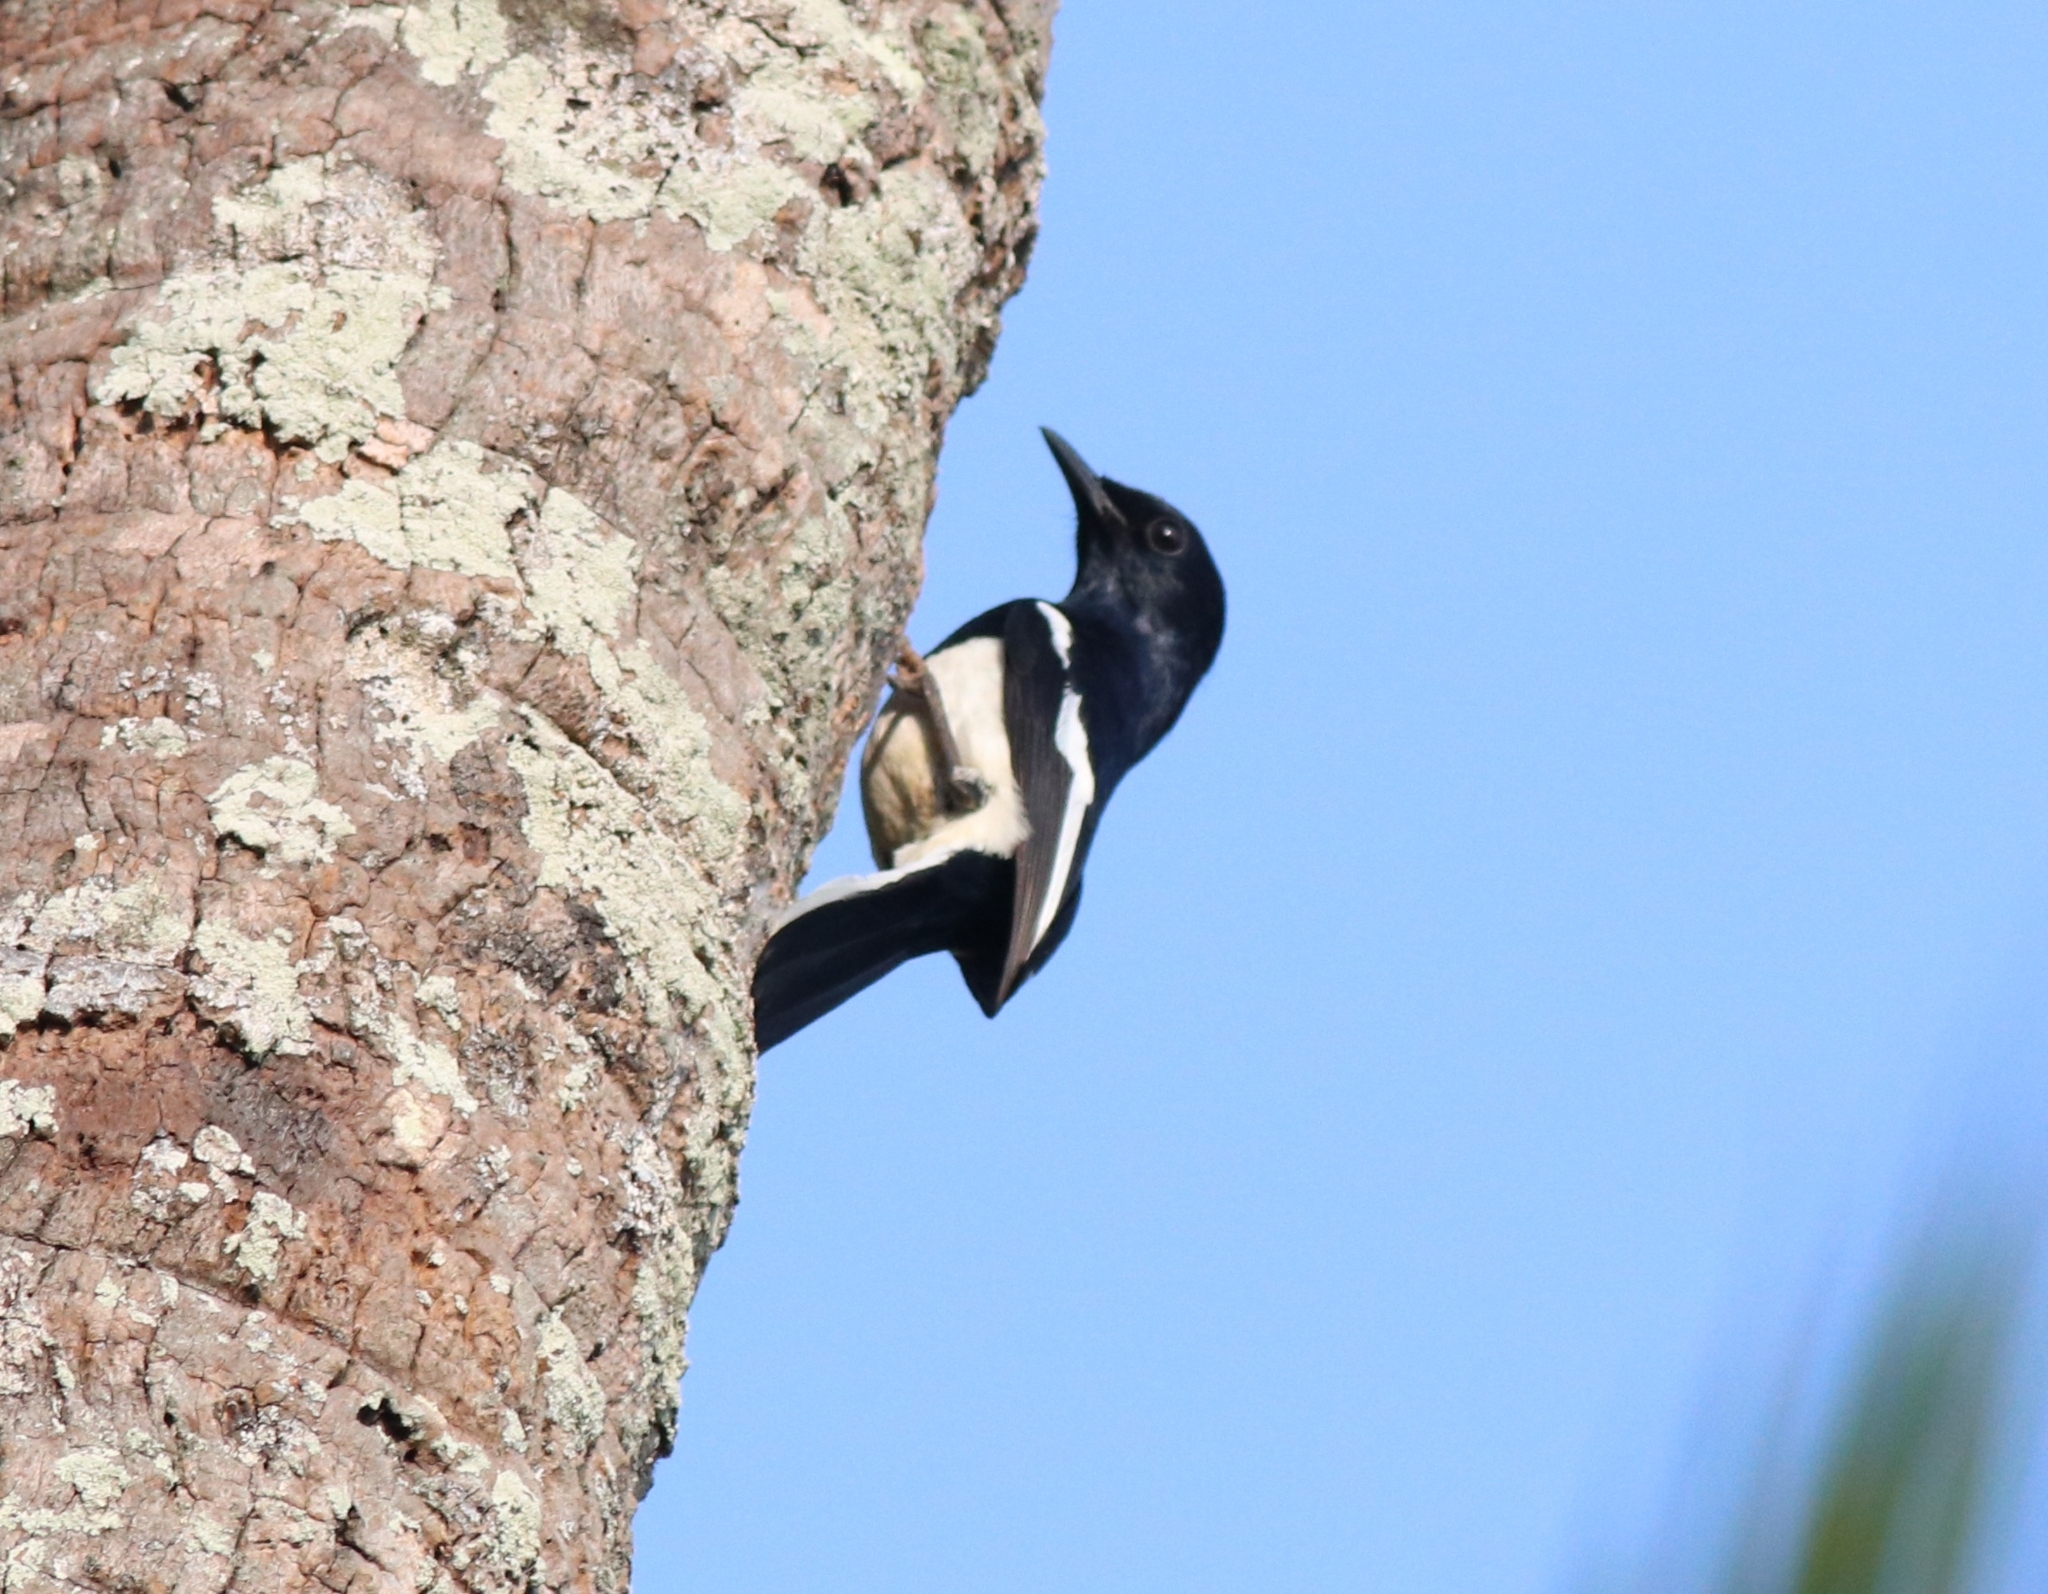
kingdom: Animalia
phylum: Chordata
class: Aves
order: Passeriformes
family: Muscicapidae
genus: Copsychus
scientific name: Copsychus saularis
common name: Oriental magpie-robin
